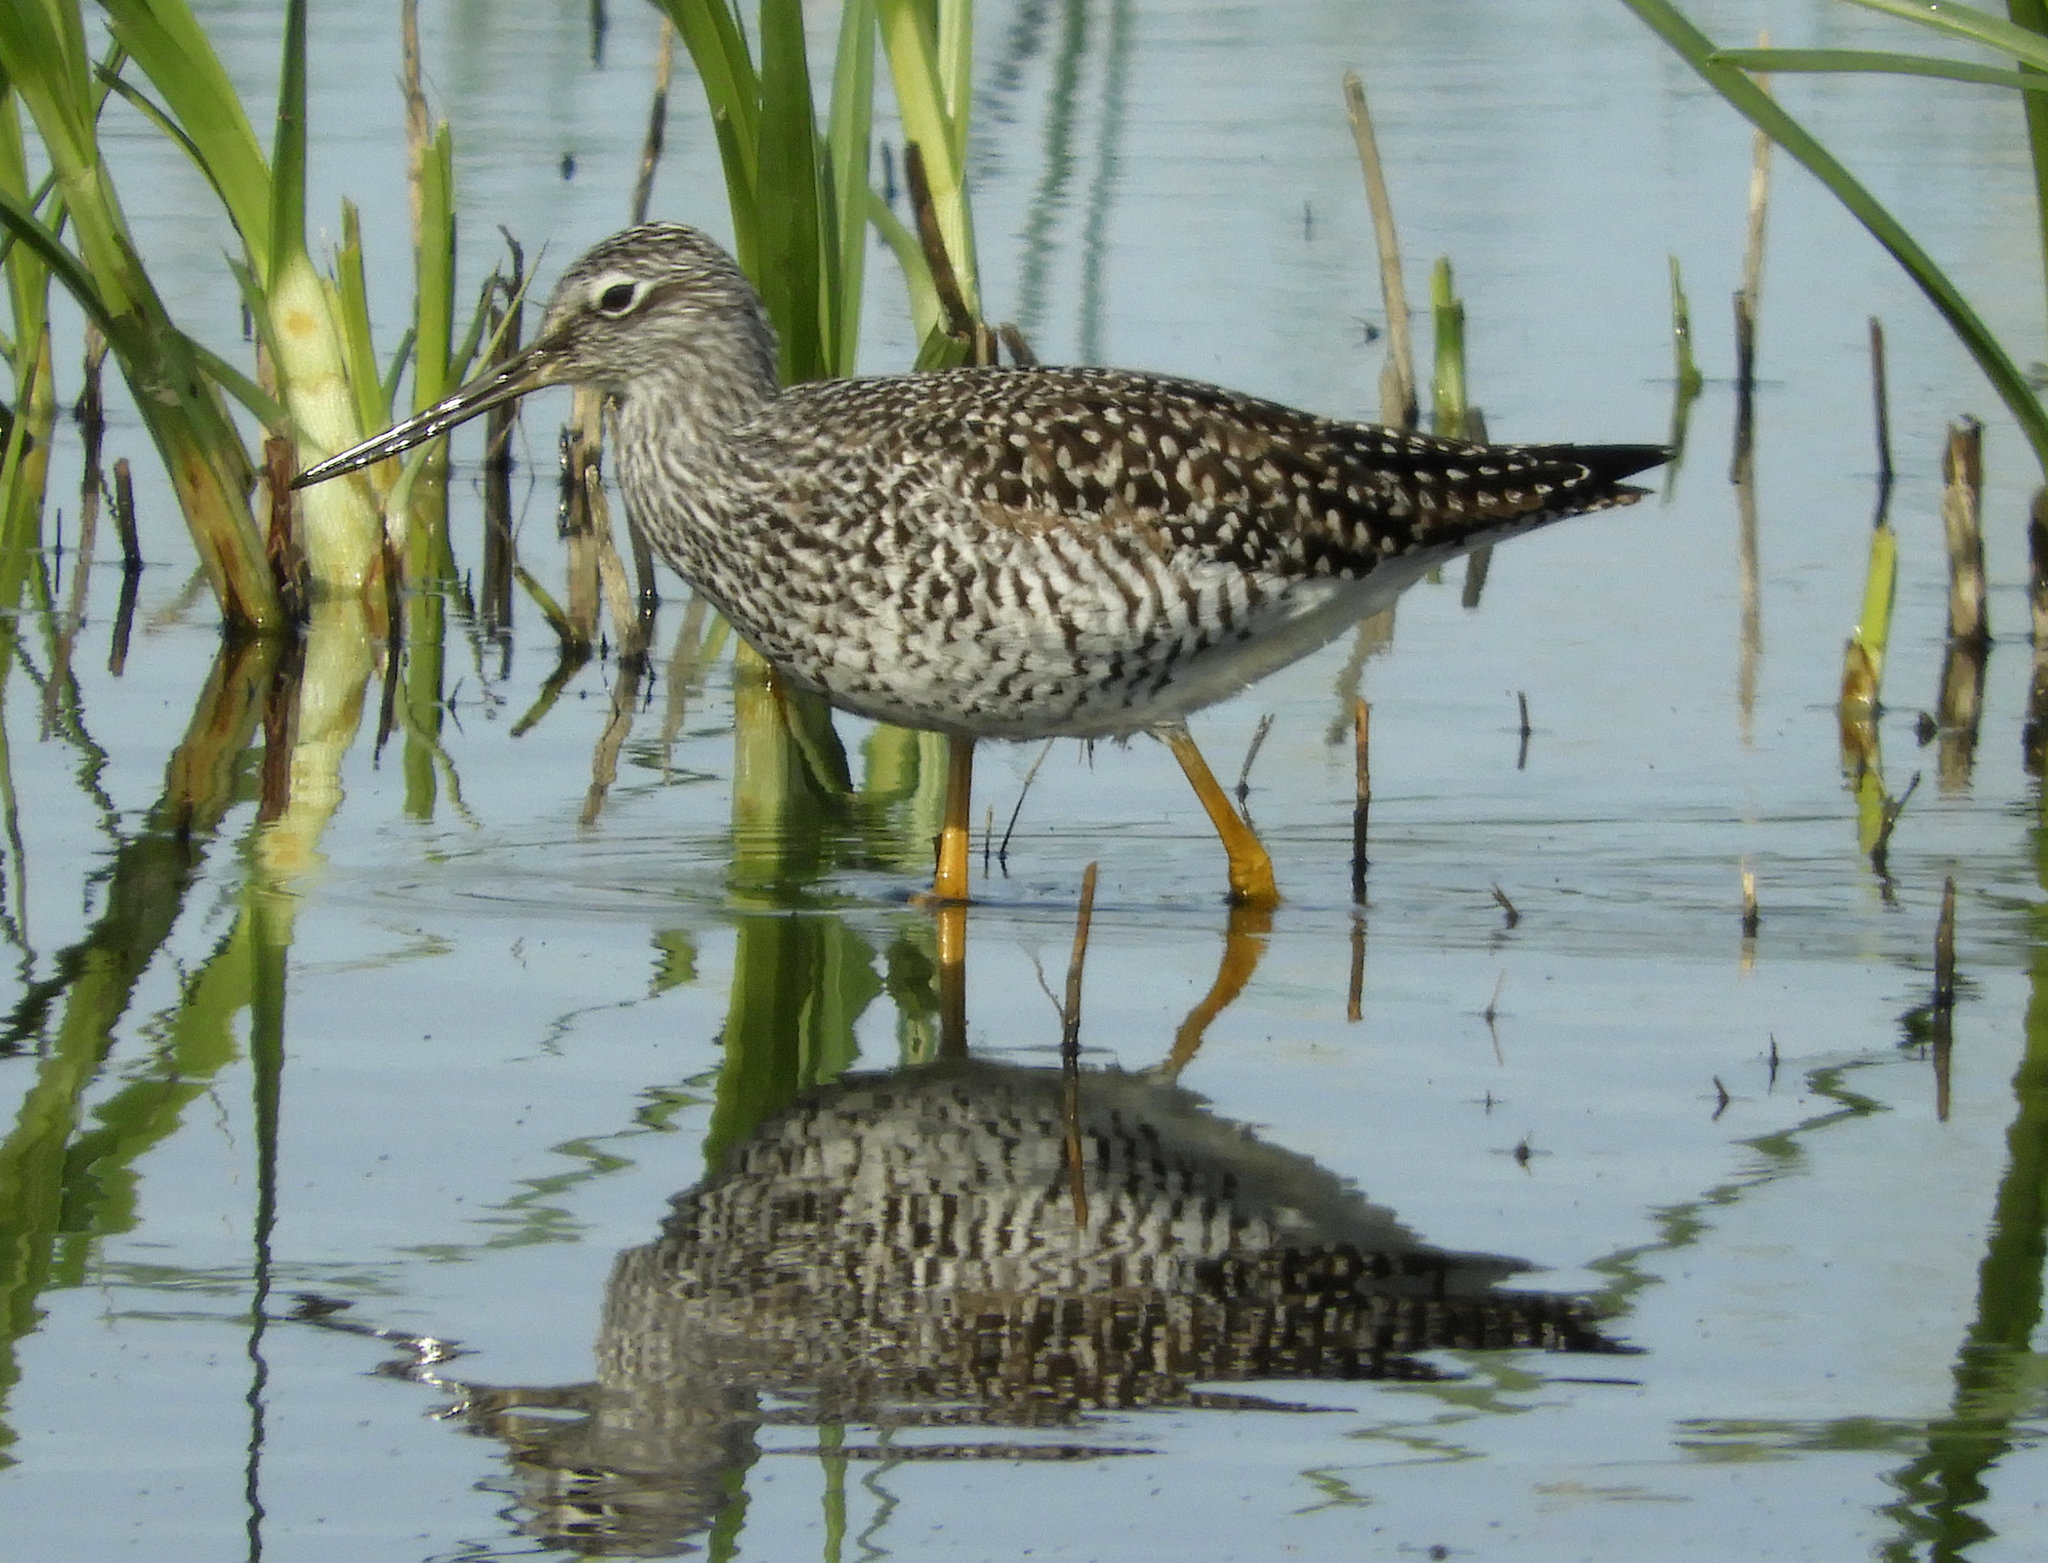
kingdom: Animalia
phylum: Chordata
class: Aves
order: Charadriiformes
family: Scolopacidae
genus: Tringa
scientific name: Tringa melanoleuca
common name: Greater yellowlegs
